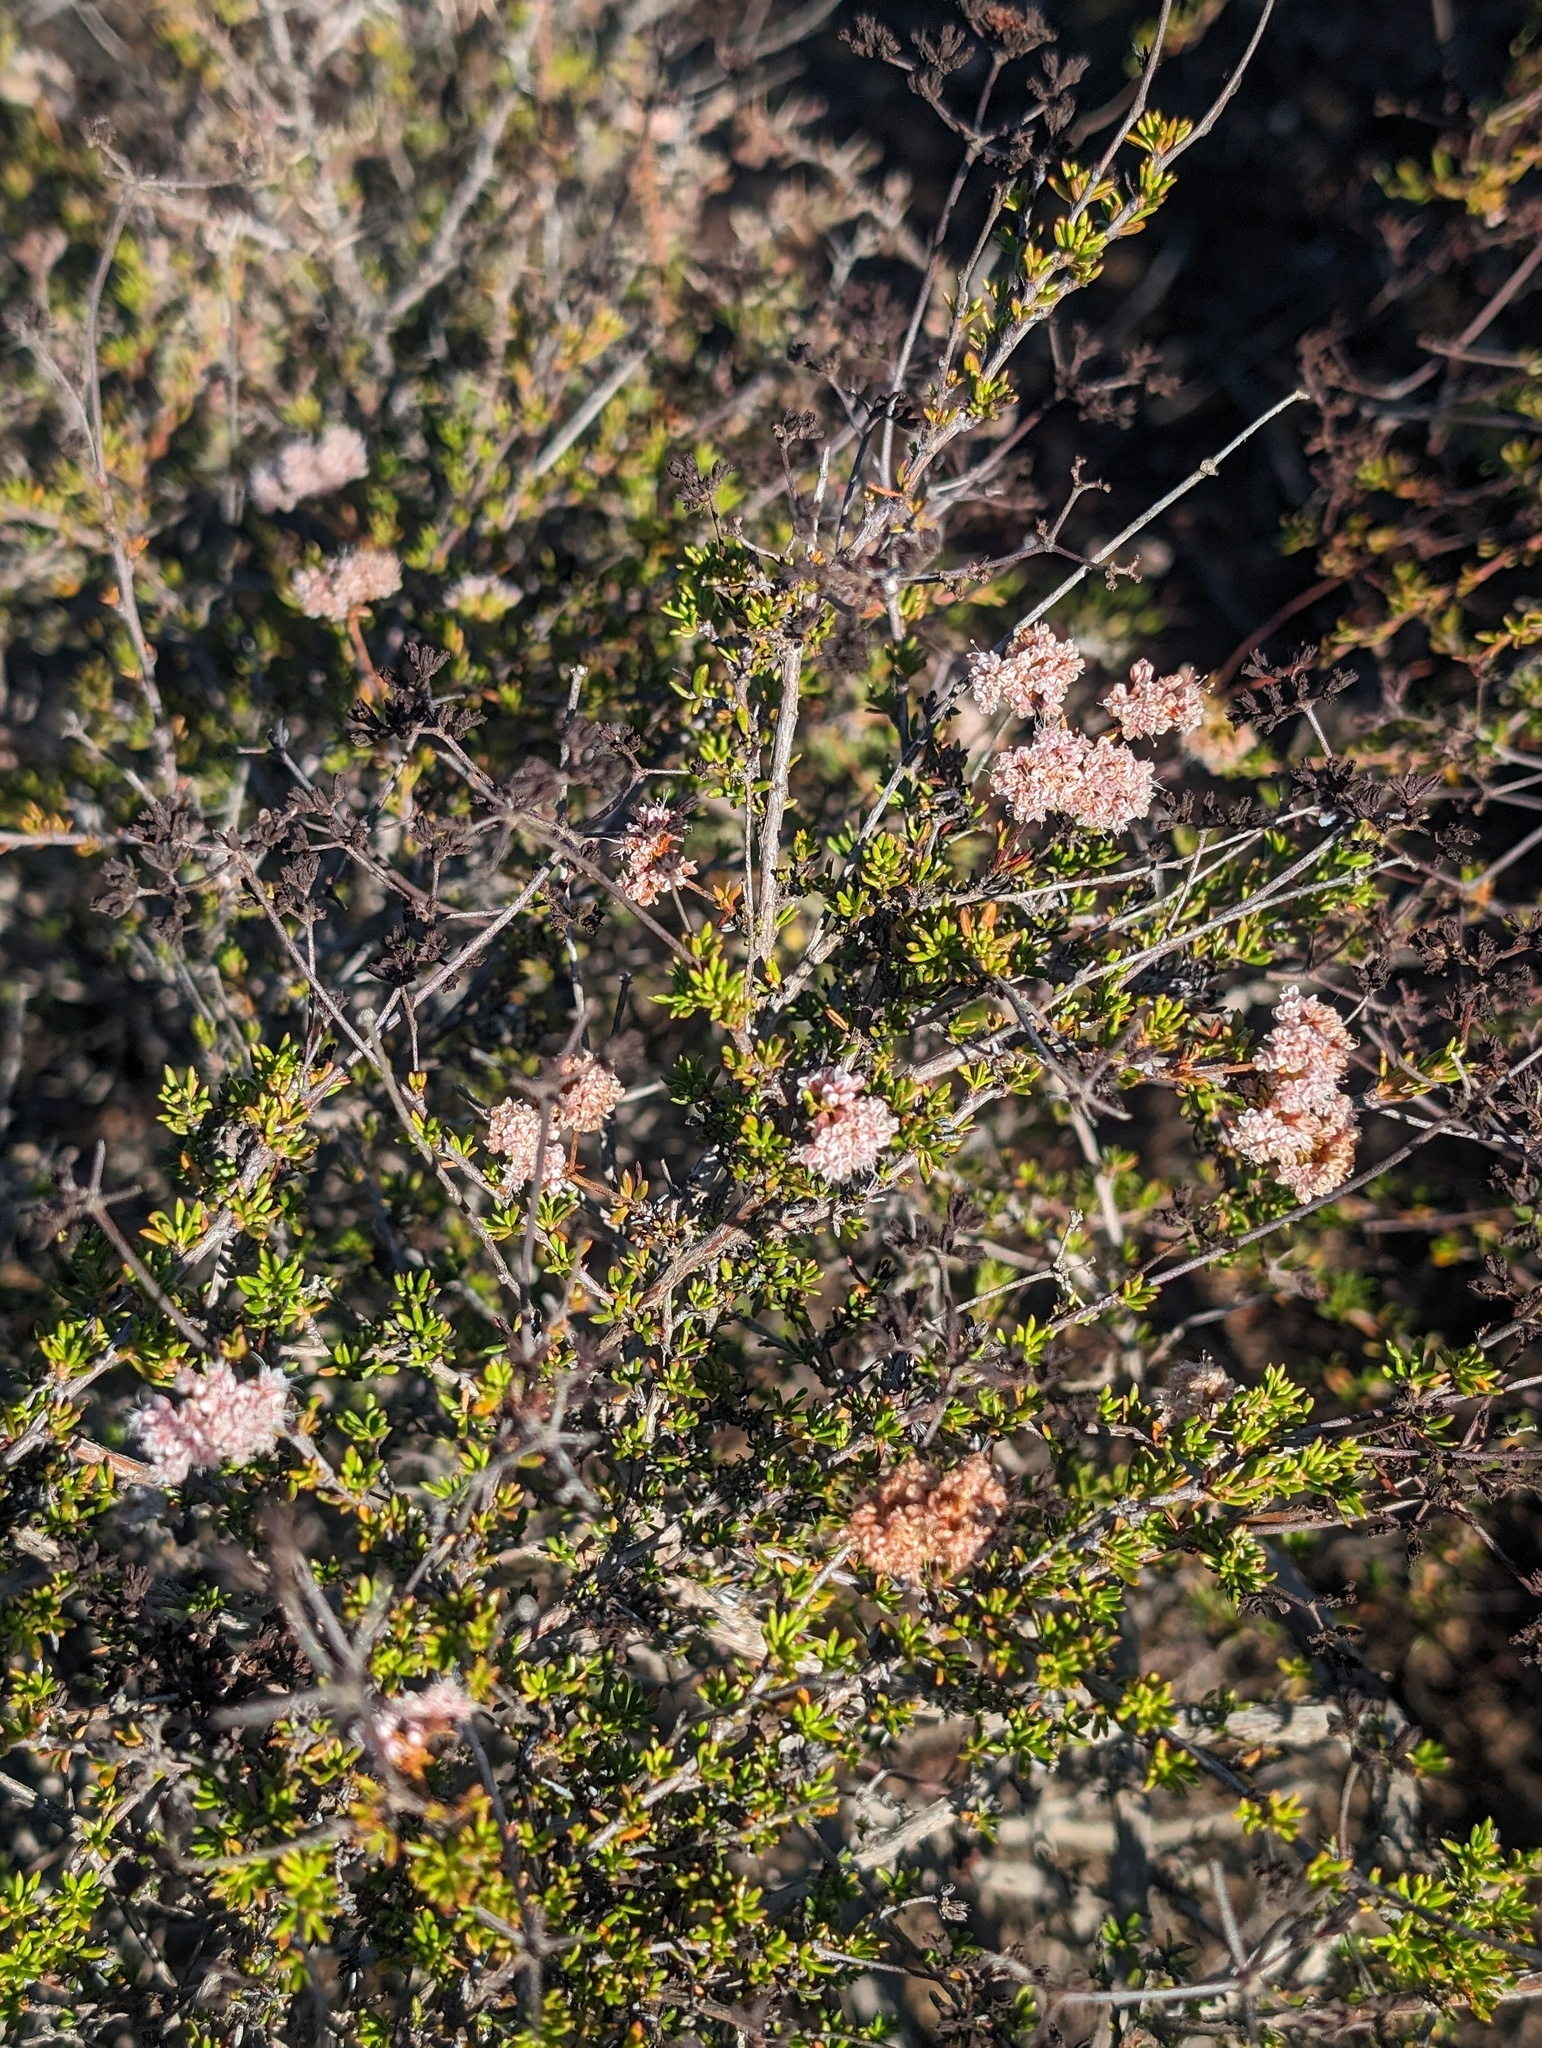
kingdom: Plantae
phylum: Tracheophyta
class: Magnoliopsida
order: Caryophyllales
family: Polygonaceae
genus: Eriogonum
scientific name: Eriogonum fasciculatum
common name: California wild buckwheat
